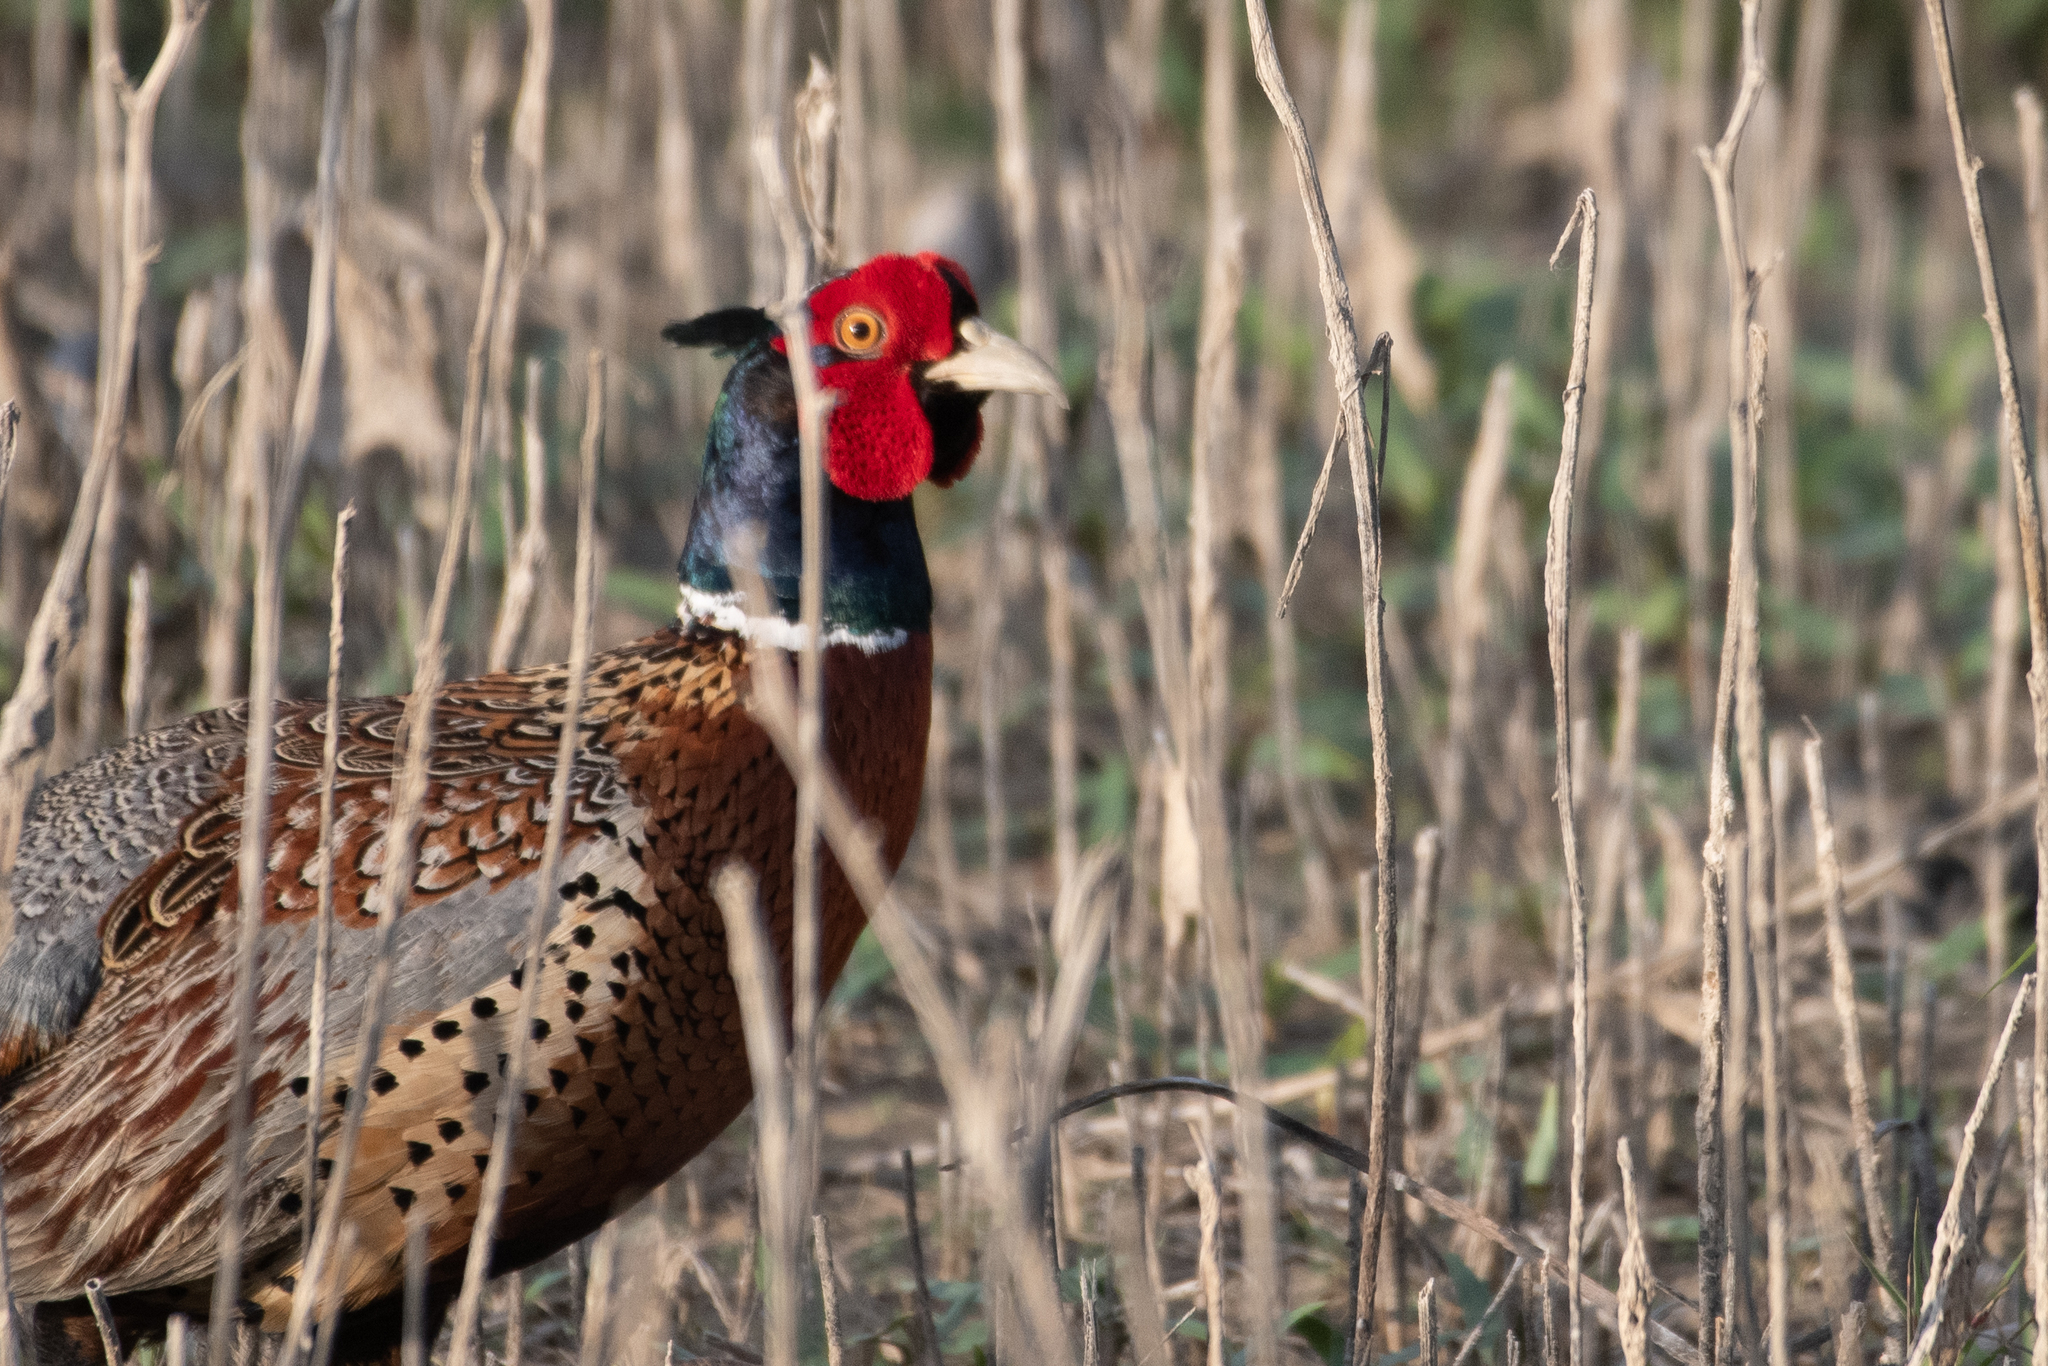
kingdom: Animalia
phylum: Chordata
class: Aves
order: Galliformes
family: Phasianidae
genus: Phasianus
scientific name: Phasianus colchicus
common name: Common pheasant
